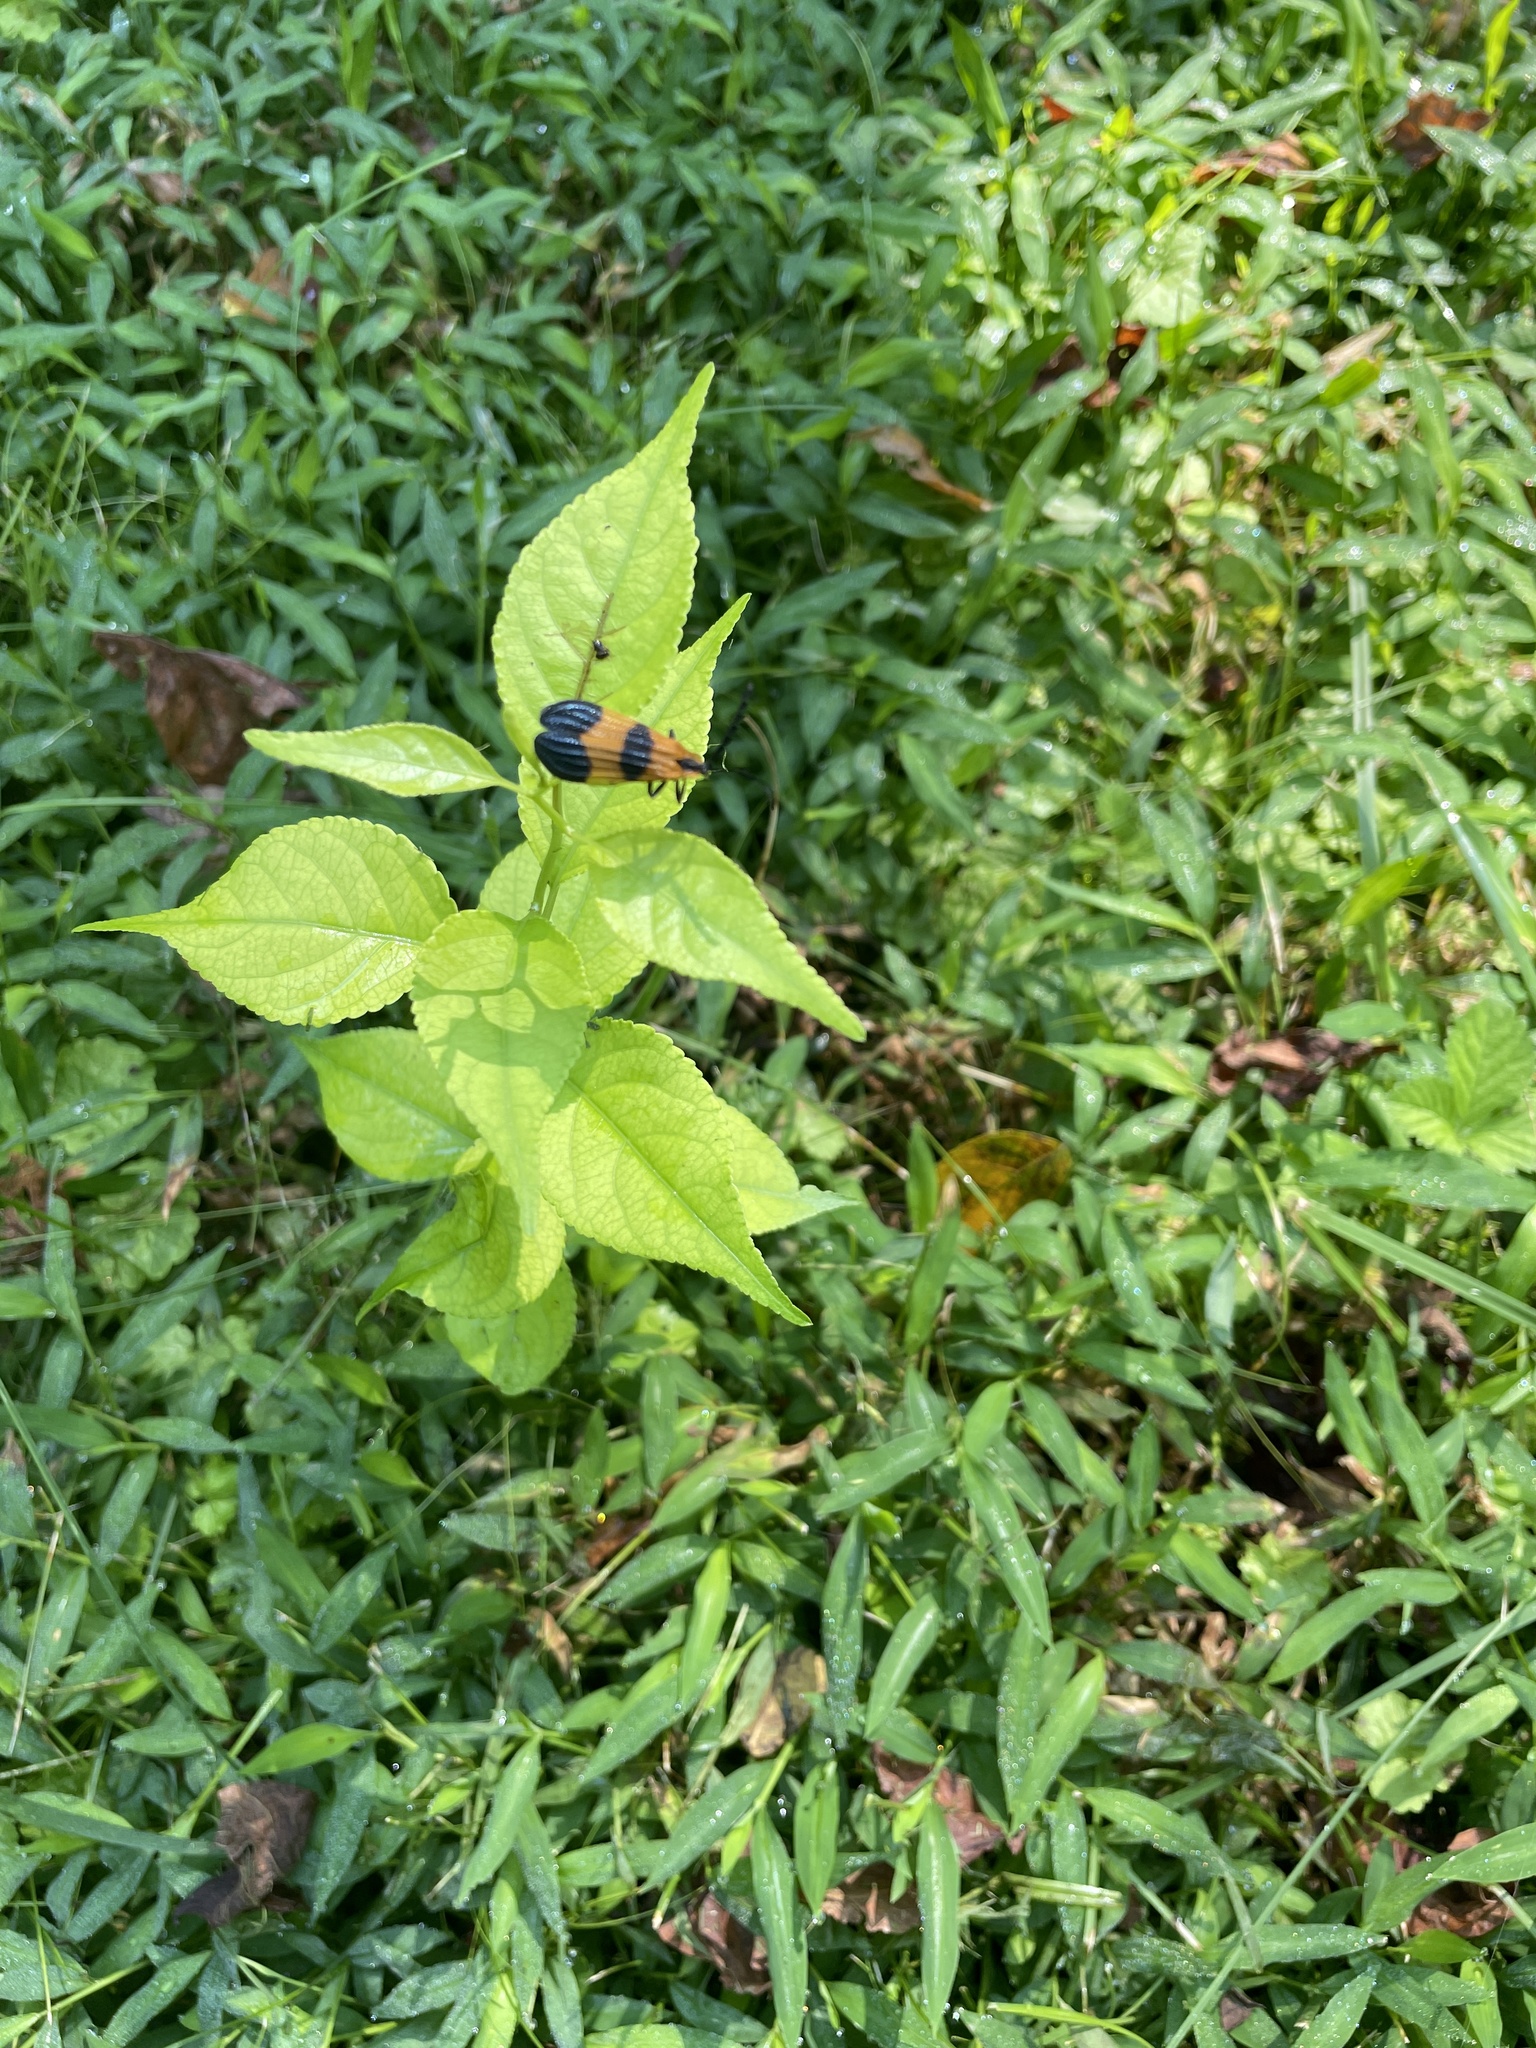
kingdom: Animalia
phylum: Arthropoda
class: Insecta
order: Coleoptera
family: Lycidae
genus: Calopteron
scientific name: Calopteron terminale
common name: End band net-winged beetle
